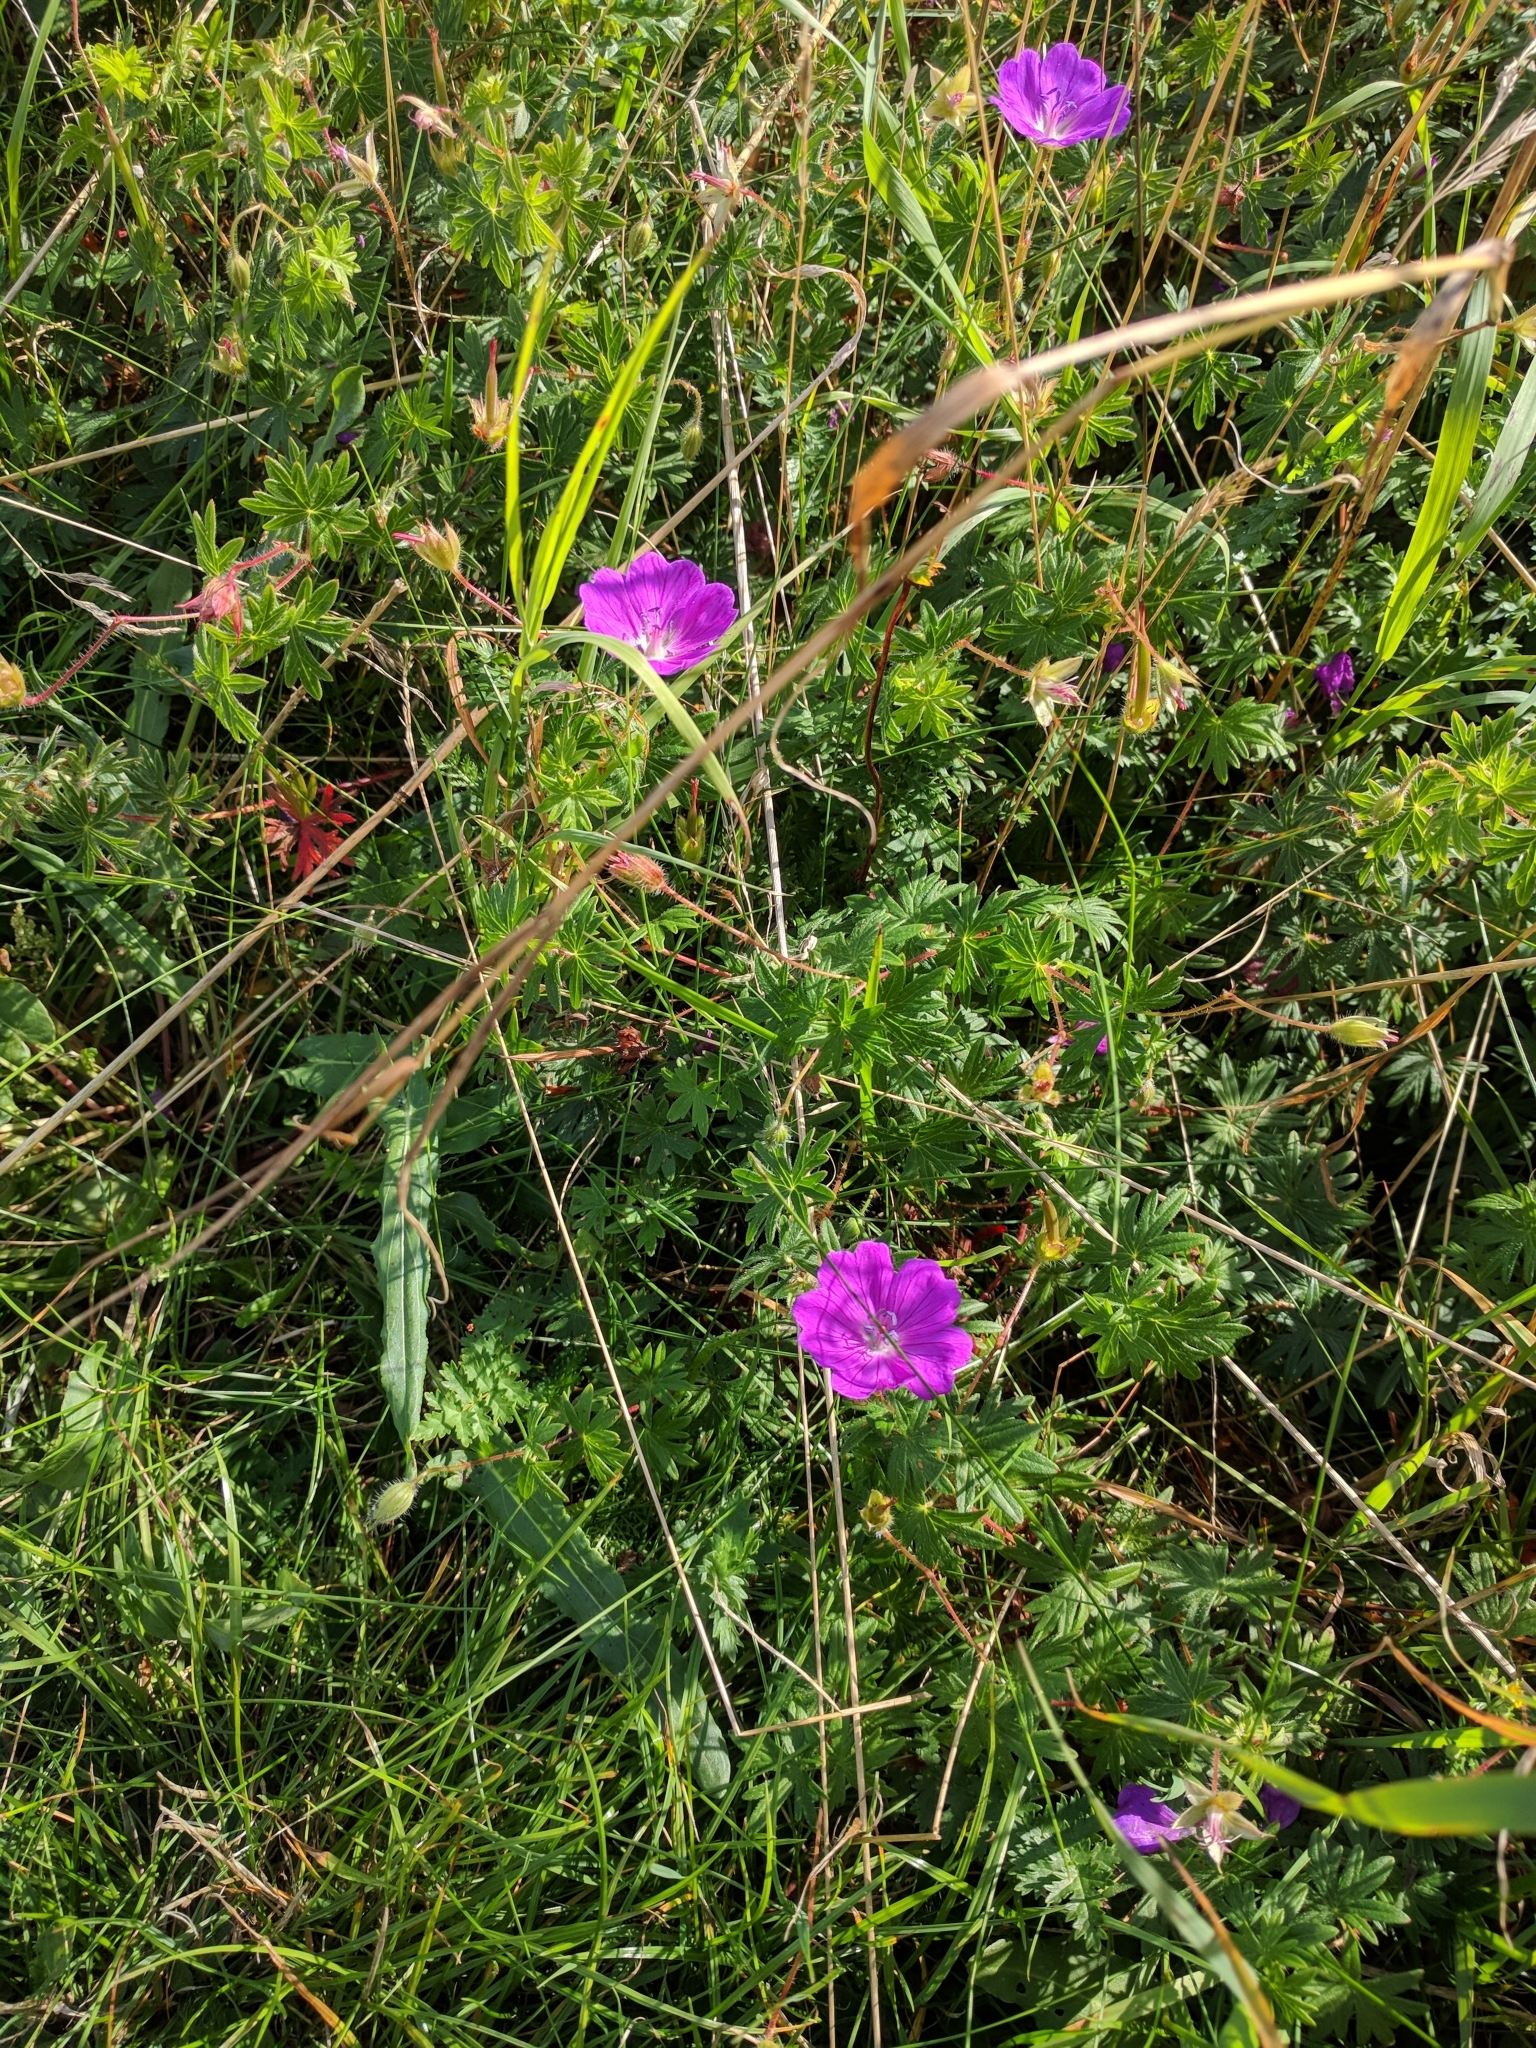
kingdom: Plantae
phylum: Tracheophyta
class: Magnoliopsida
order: Geraniales
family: Geraniaceae
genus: Geranium
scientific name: Geranium sanguineum
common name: Bloody crane's-bill
